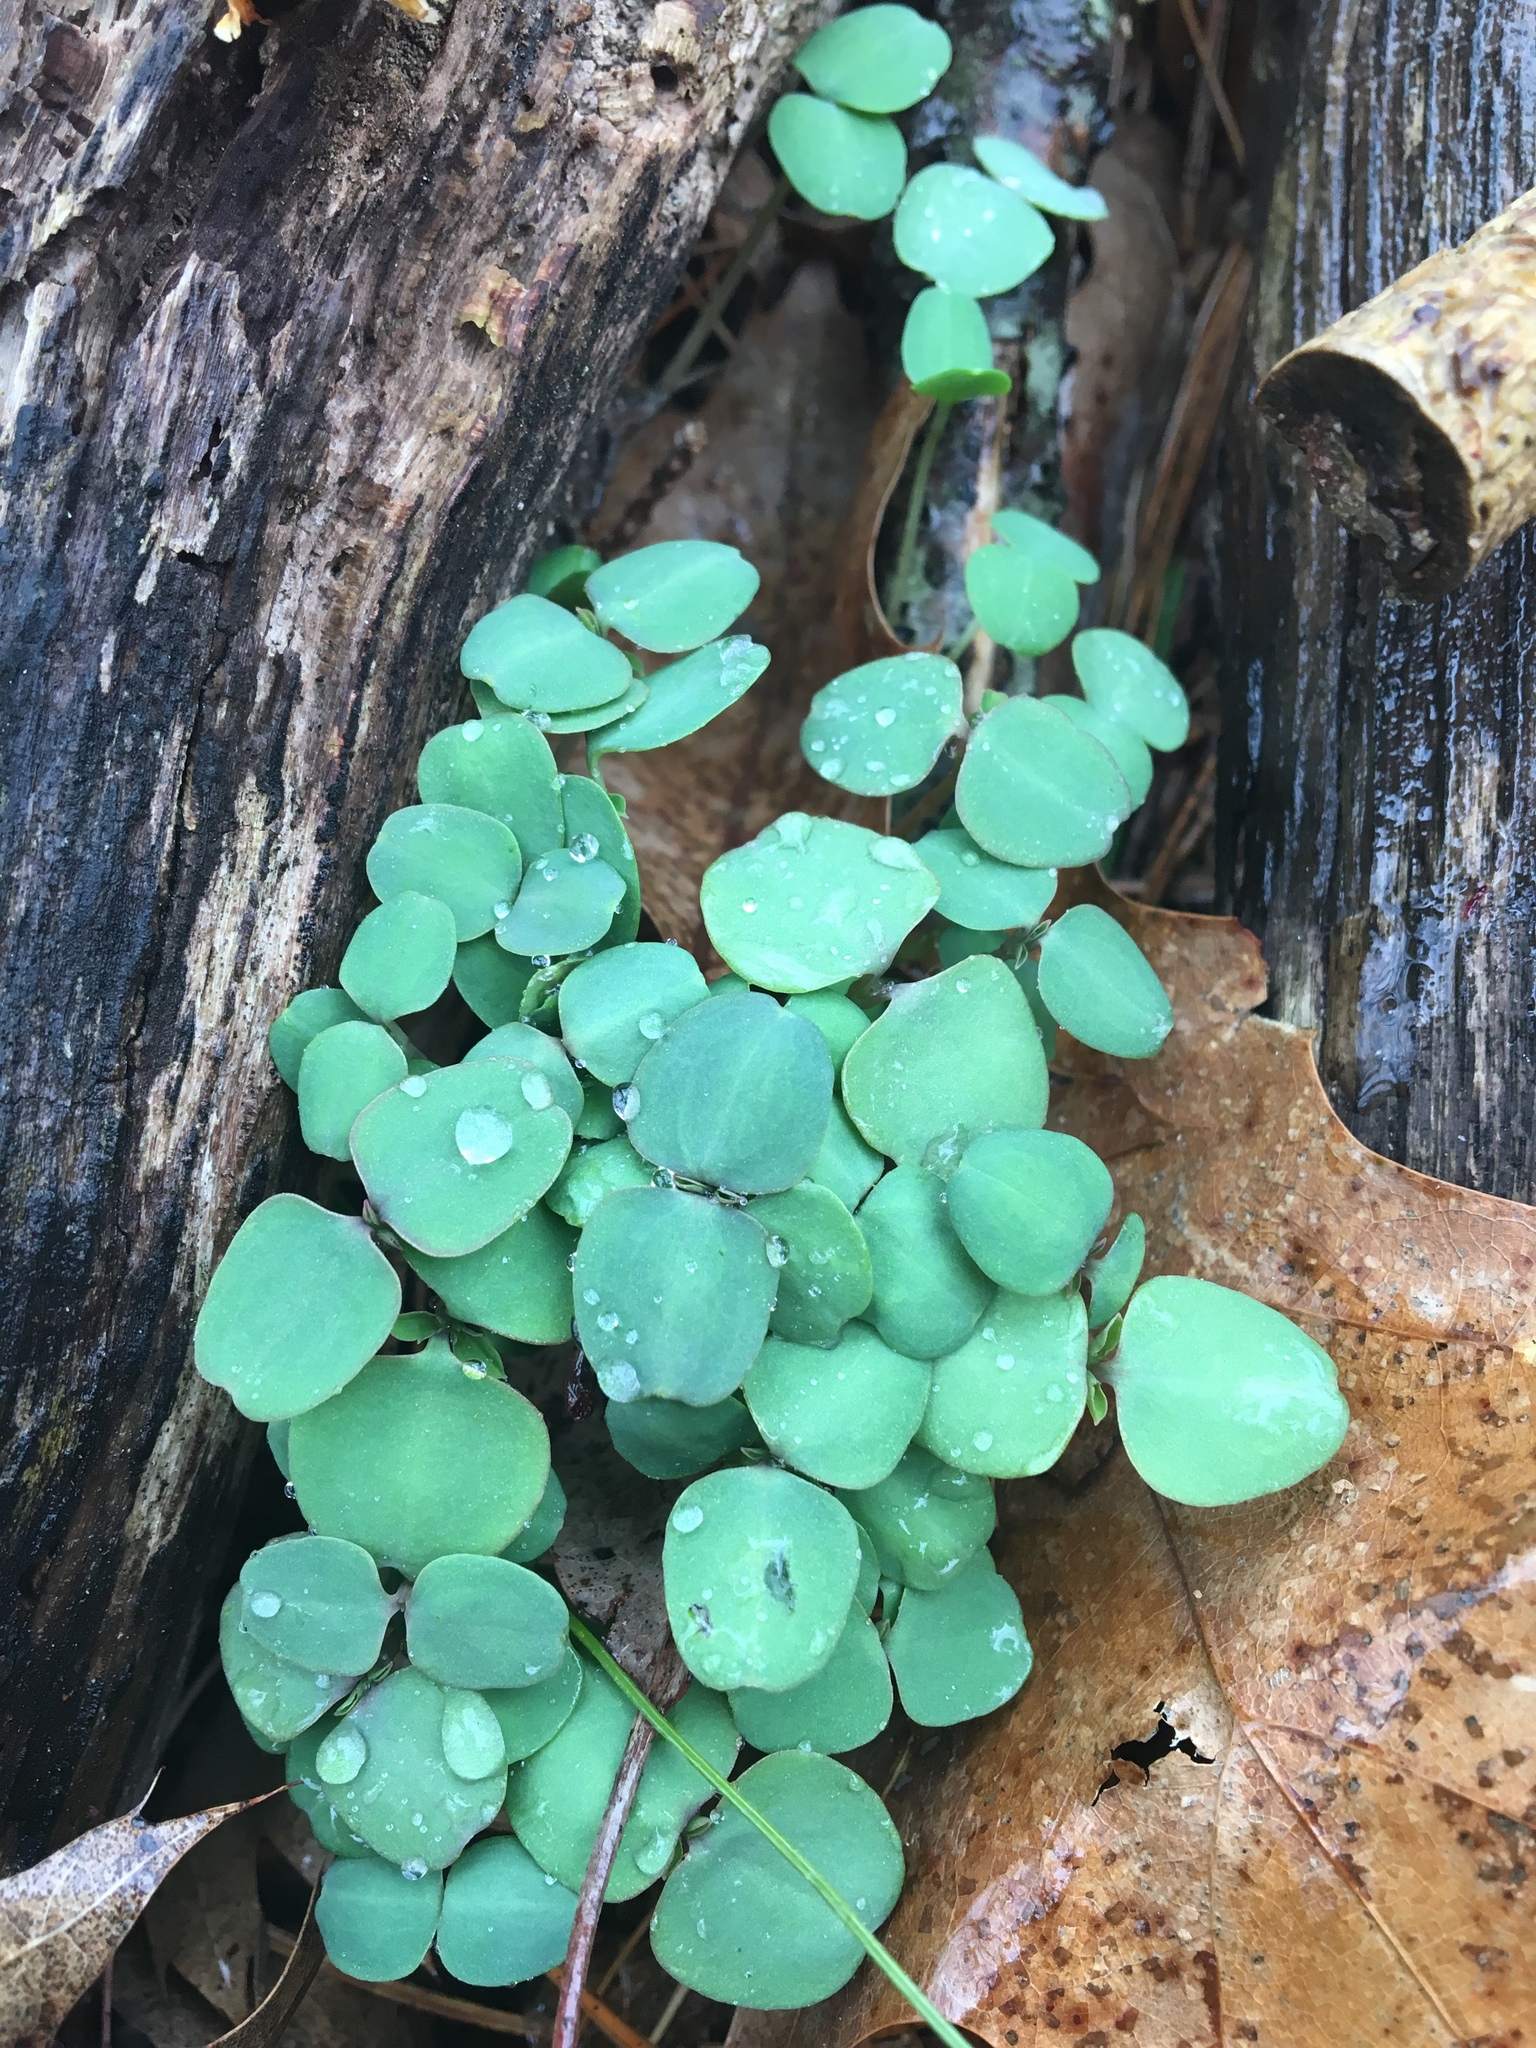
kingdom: Plantae
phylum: Tracheophyta
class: Magnoliopsida
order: Ericales
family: Balsaminaceae
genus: Impatiens
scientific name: Impatiens capensis
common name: Orange balsam
